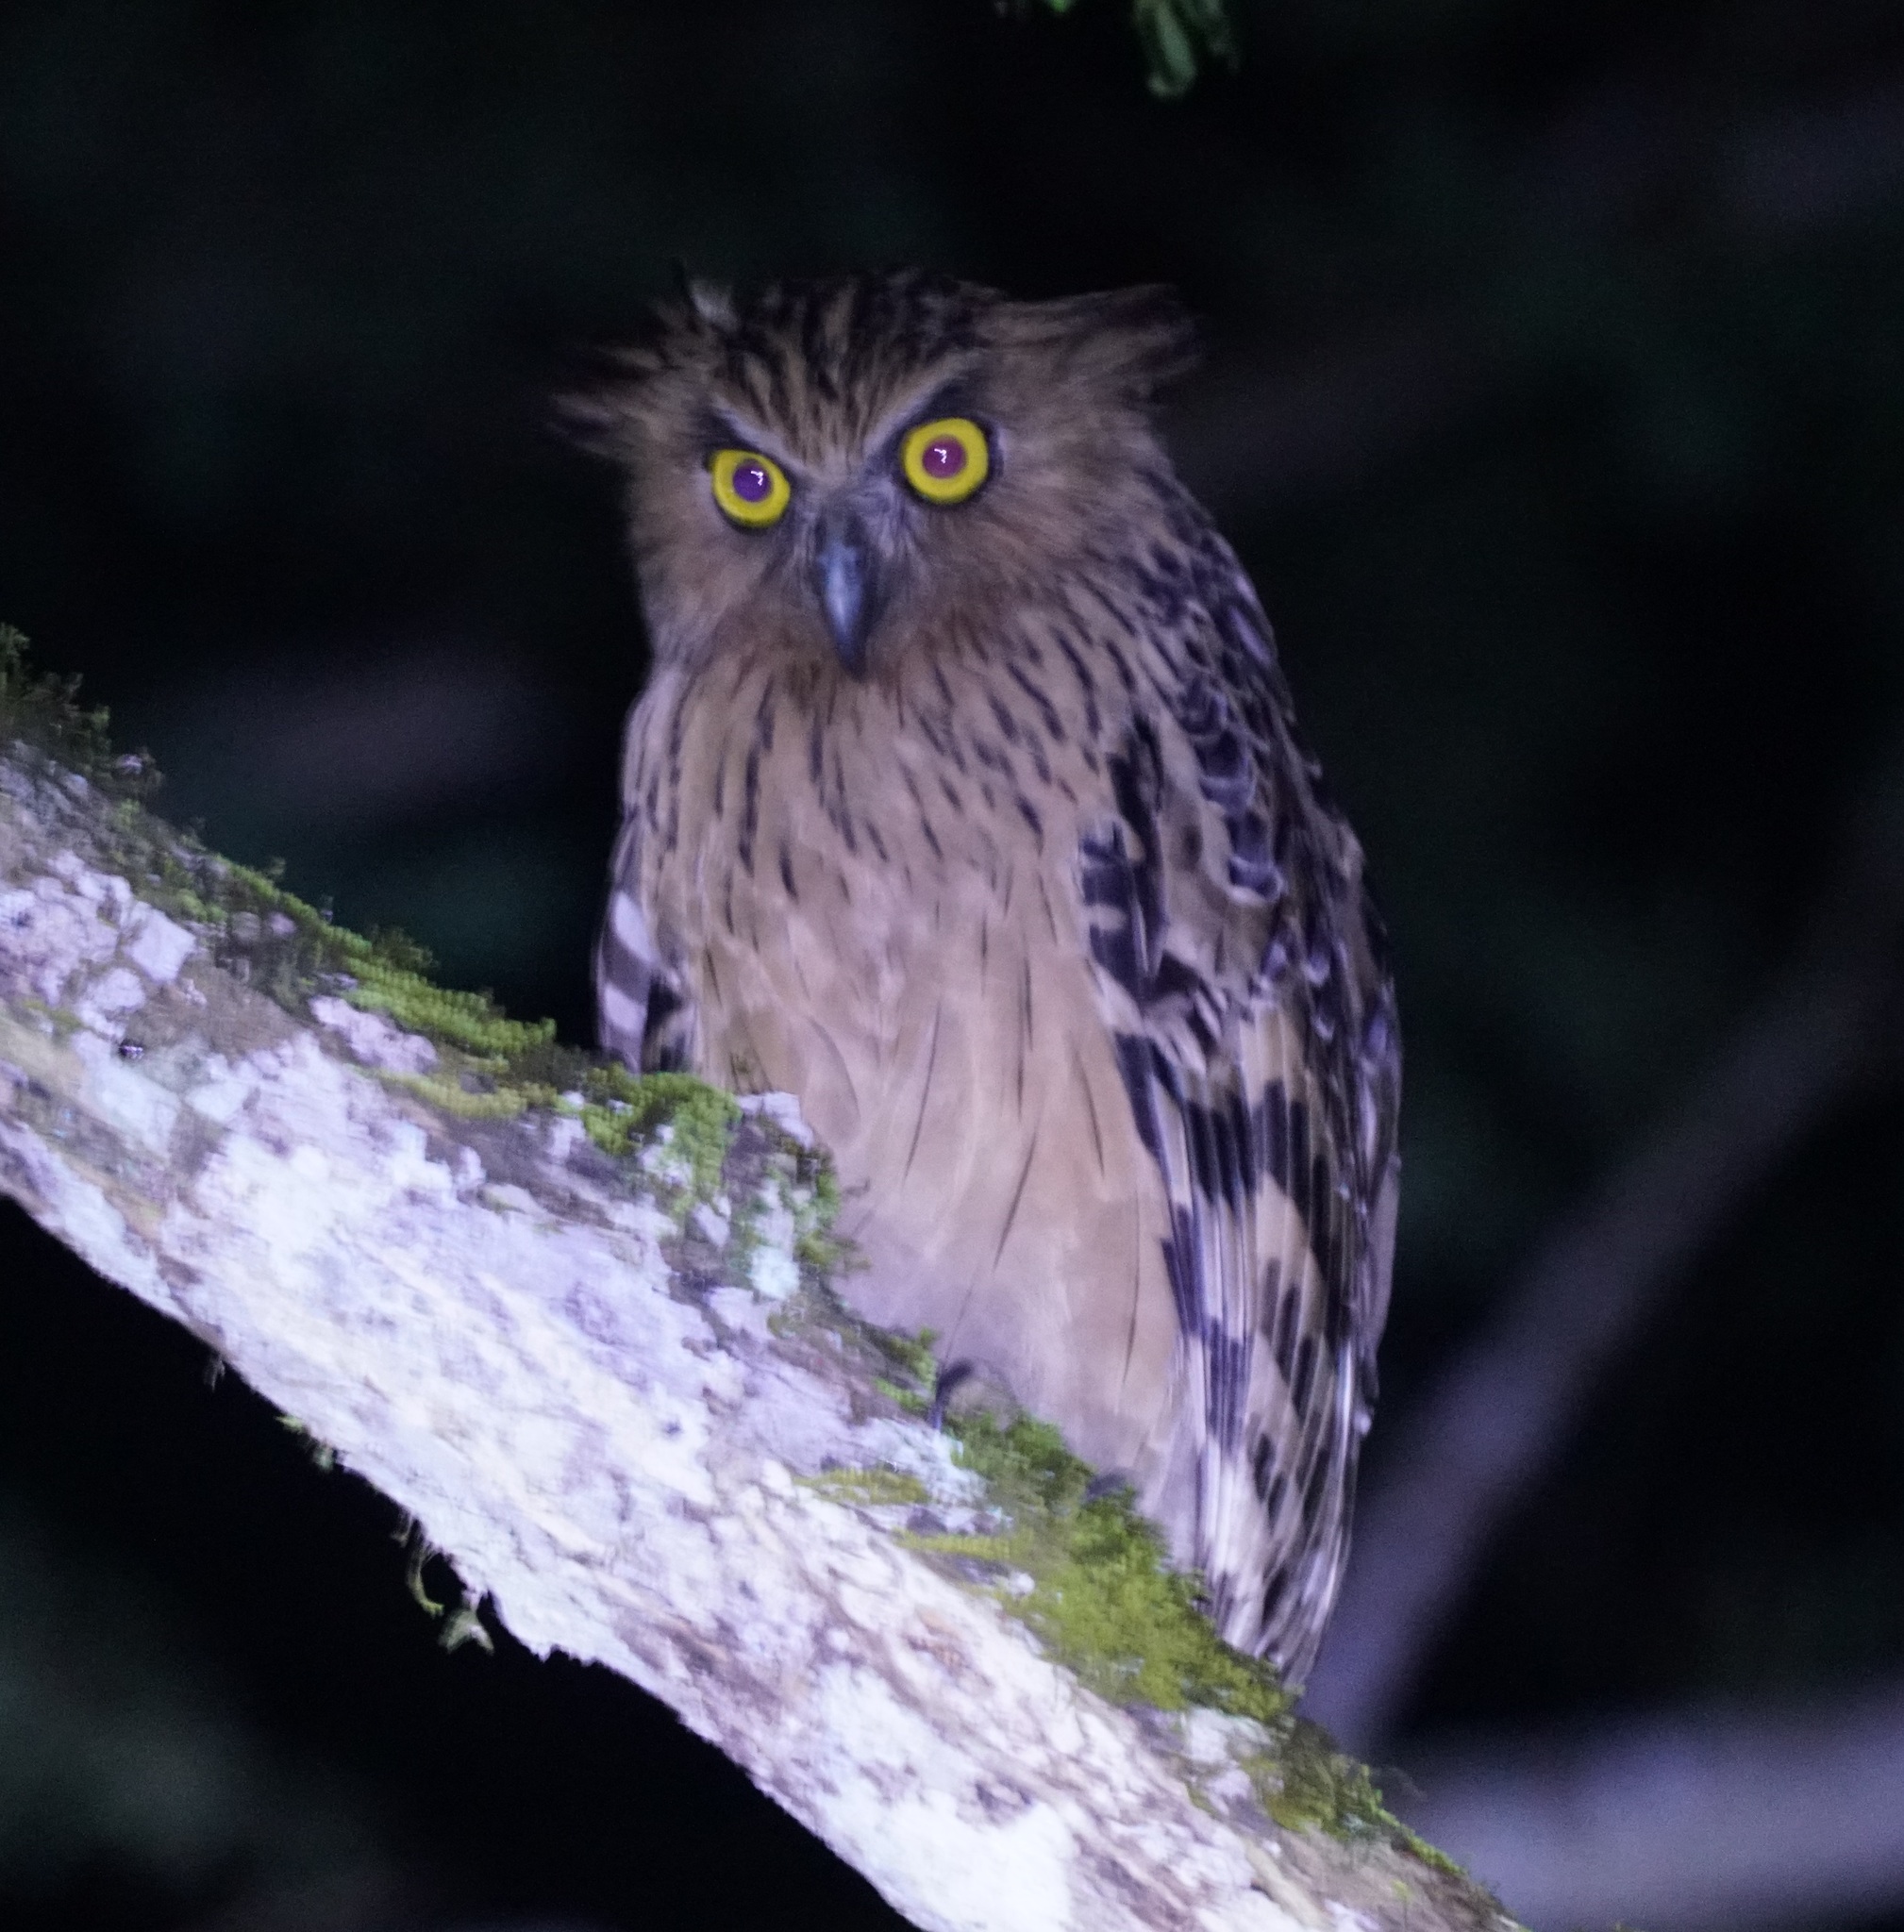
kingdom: Animalia
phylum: Chordata
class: Aves
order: Strigiformes
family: Strigidae
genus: Ketupa
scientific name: Ketupa ketupu
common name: Buffy fish-owl
